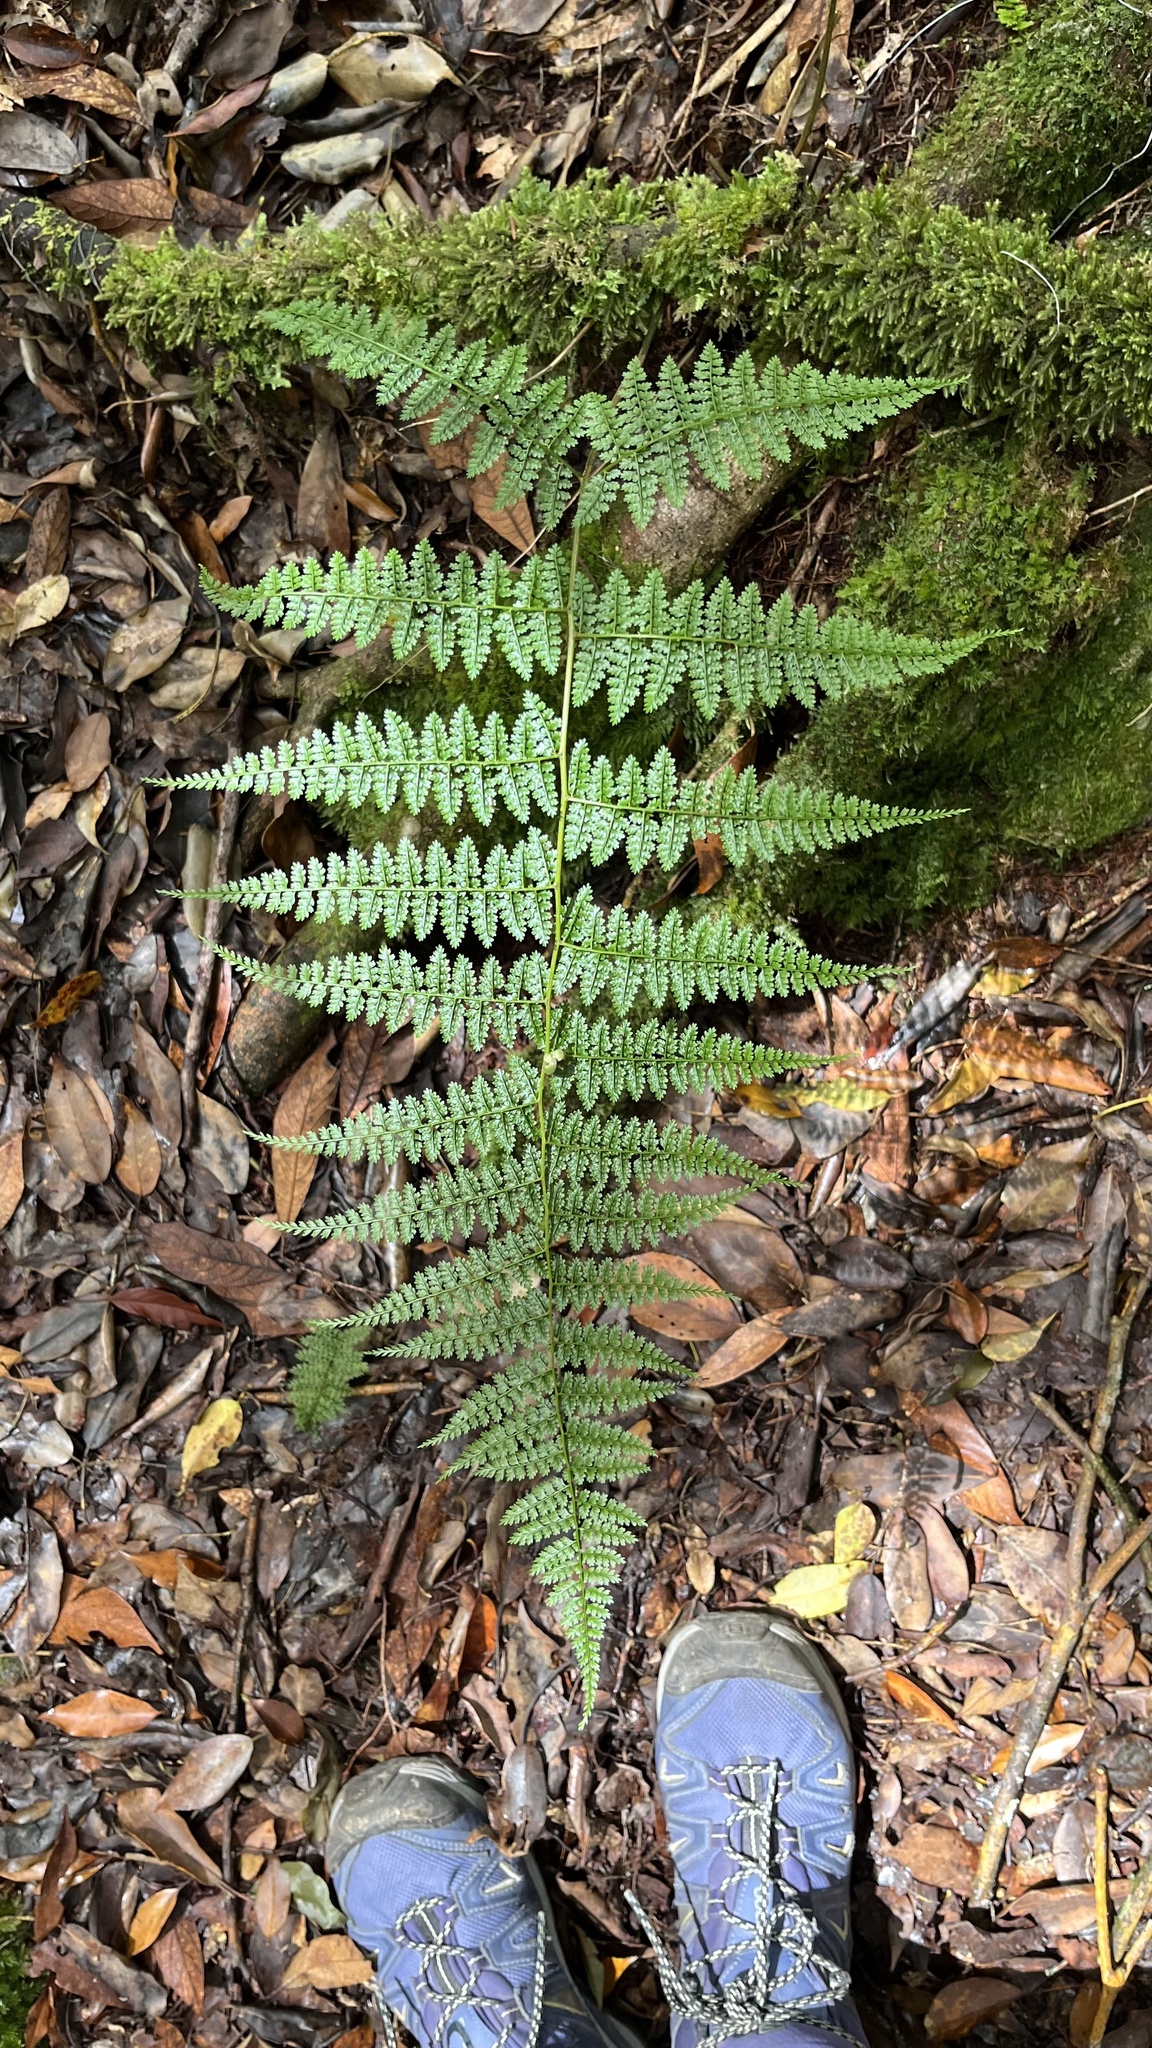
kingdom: Plantae
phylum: Tracheophyta
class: Polypodiopsida
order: Polypodiales
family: Dennstaedtiaceae
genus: Monachosorum
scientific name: Monachosorum henryi
